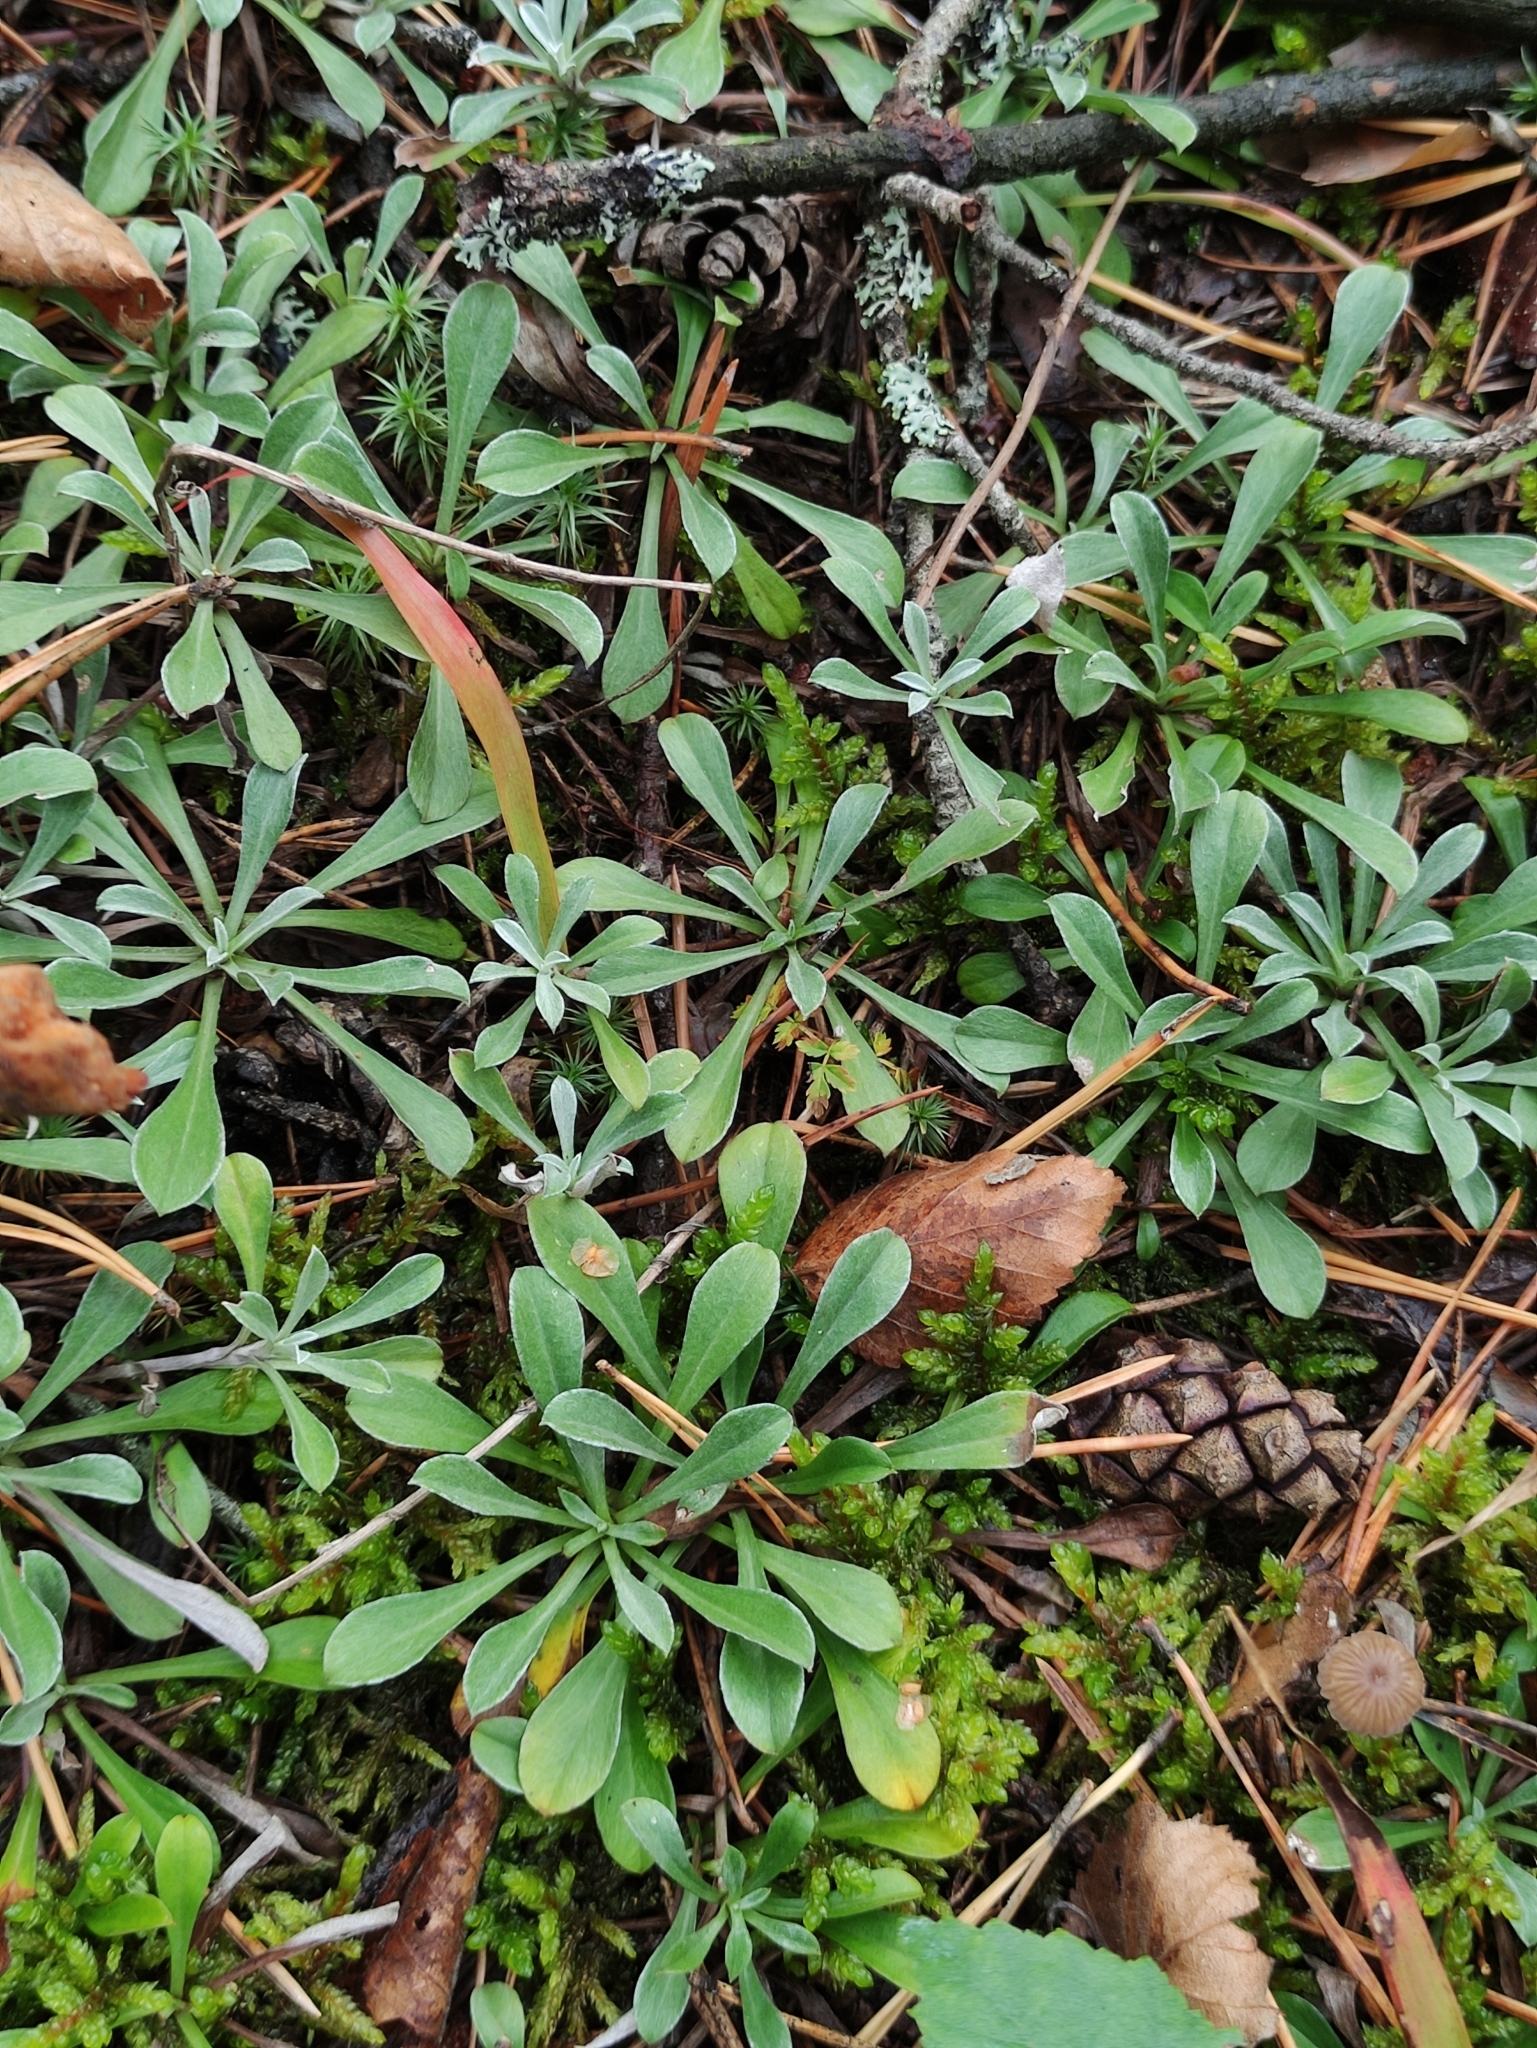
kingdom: Plantae
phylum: Tracheophyta
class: Magnoliopsida
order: Asterales
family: Asteraceae
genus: Antennaria
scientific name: Antennaria dioica
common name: Mountain everlasting
